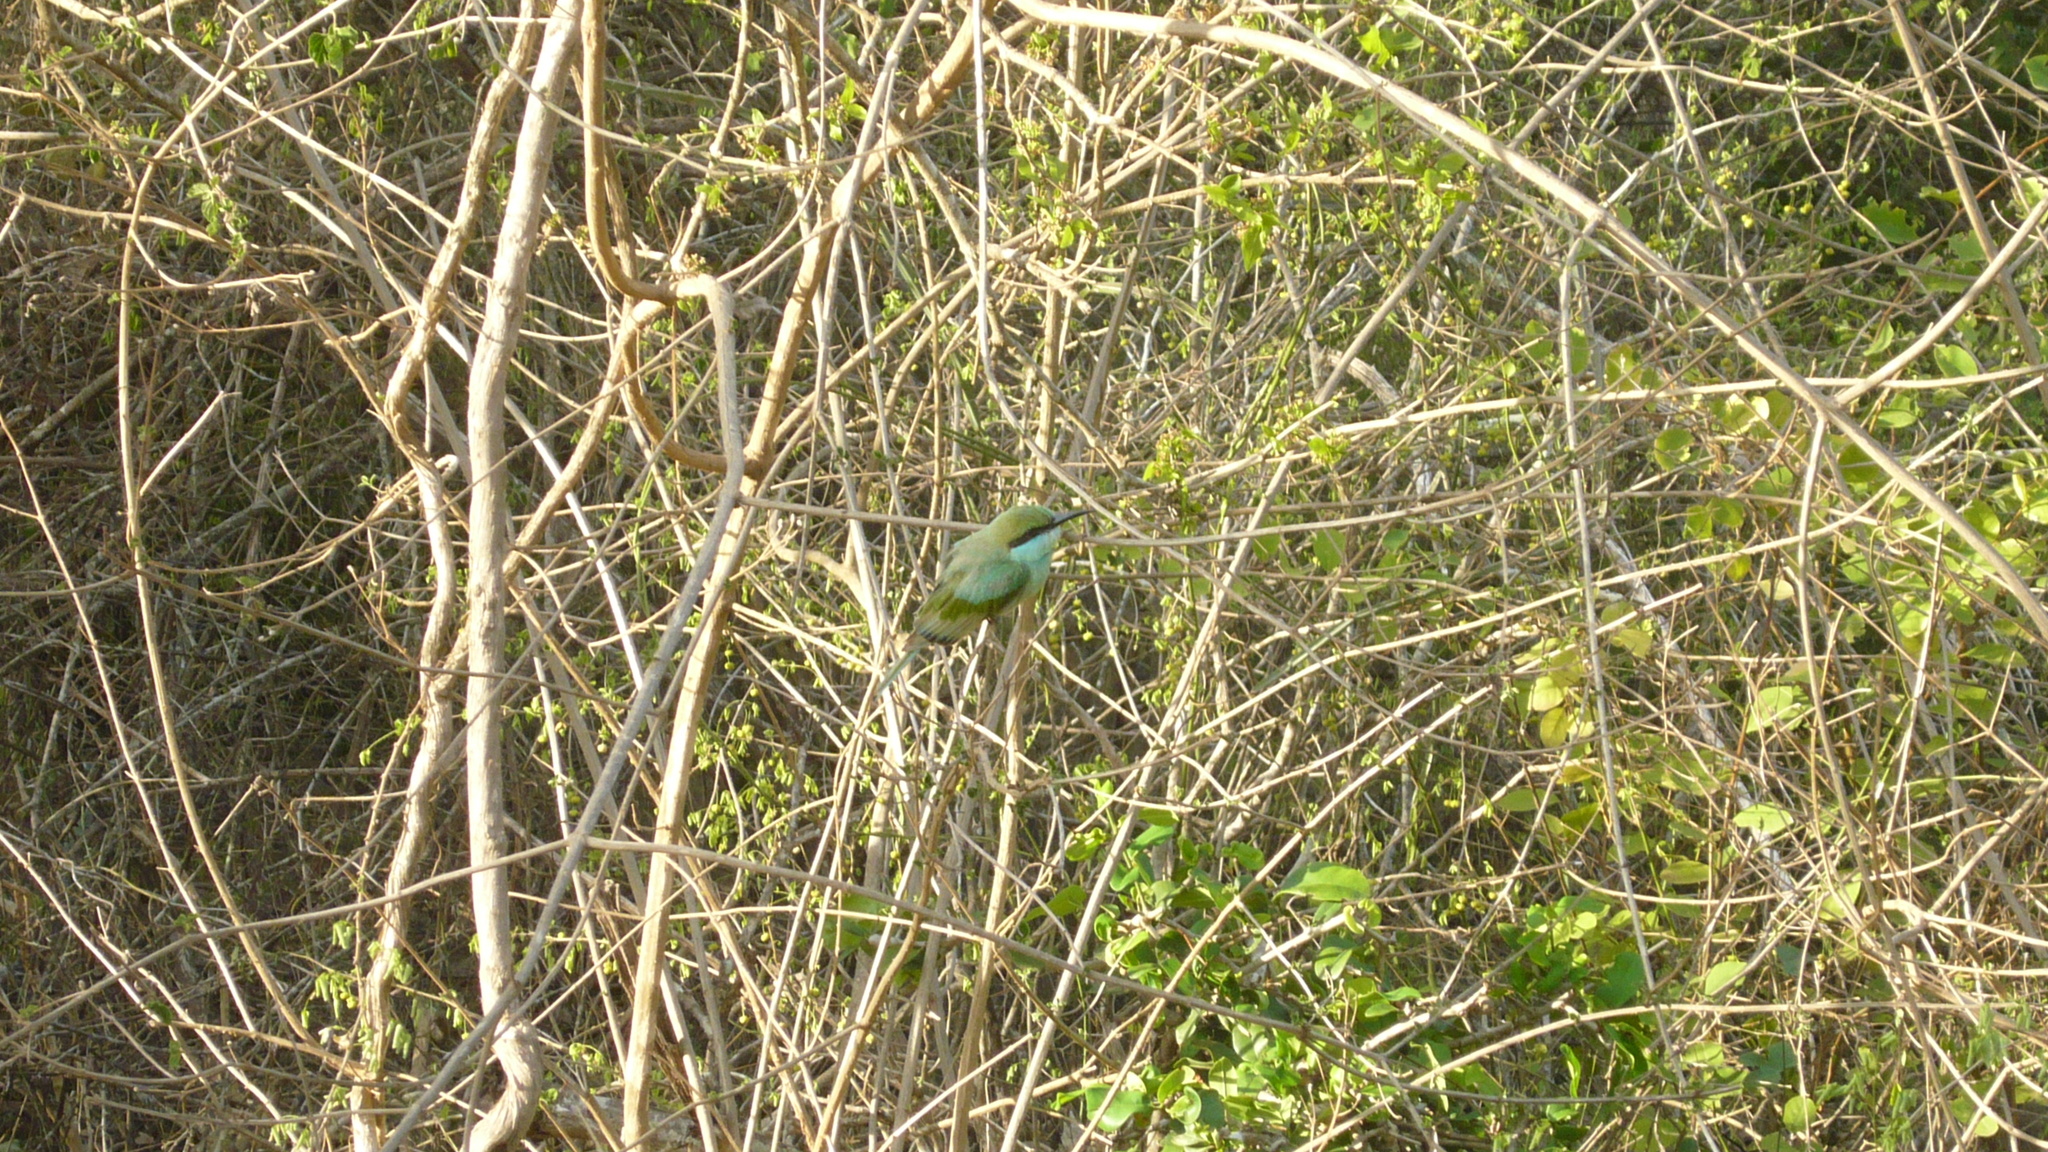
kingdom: Animalia
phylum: Chordata
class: Aves
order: Coraciiformes
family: Meropidae
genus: Merops
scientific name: Merops orientalis
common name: Green bee-eater
